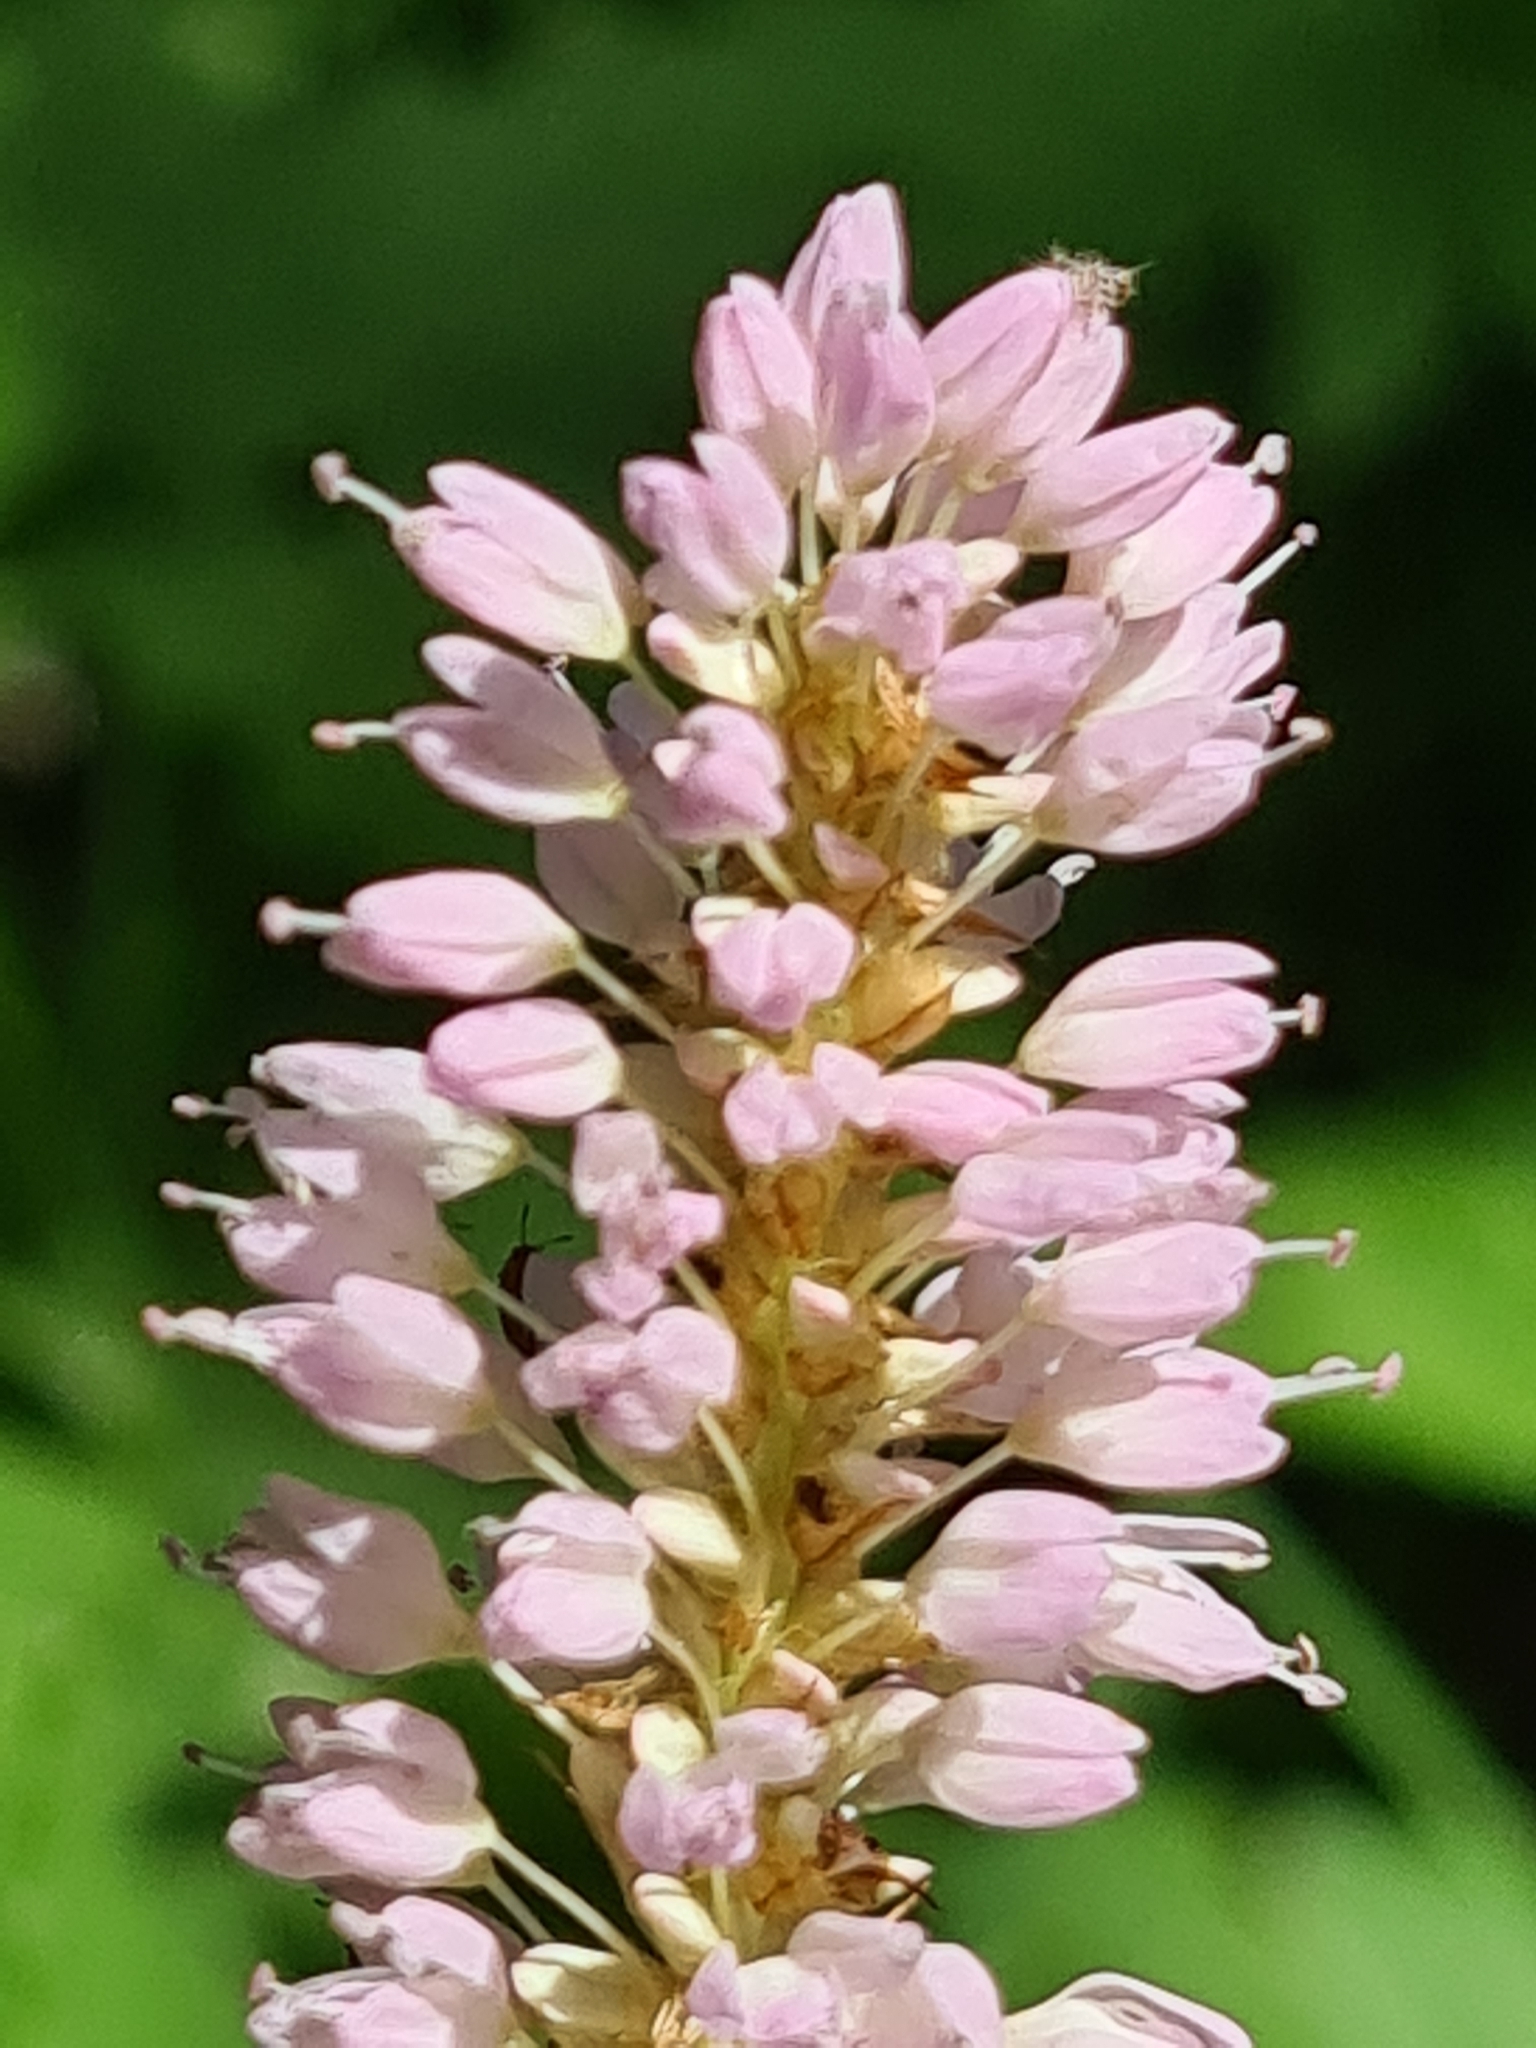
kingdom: Plantae
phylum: Tracheophyta
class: Magnoliopsida
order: Caryophyllales
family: Polygonaceae
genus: Bistorta
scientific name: Bistorta officinalis
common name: Common bistort
